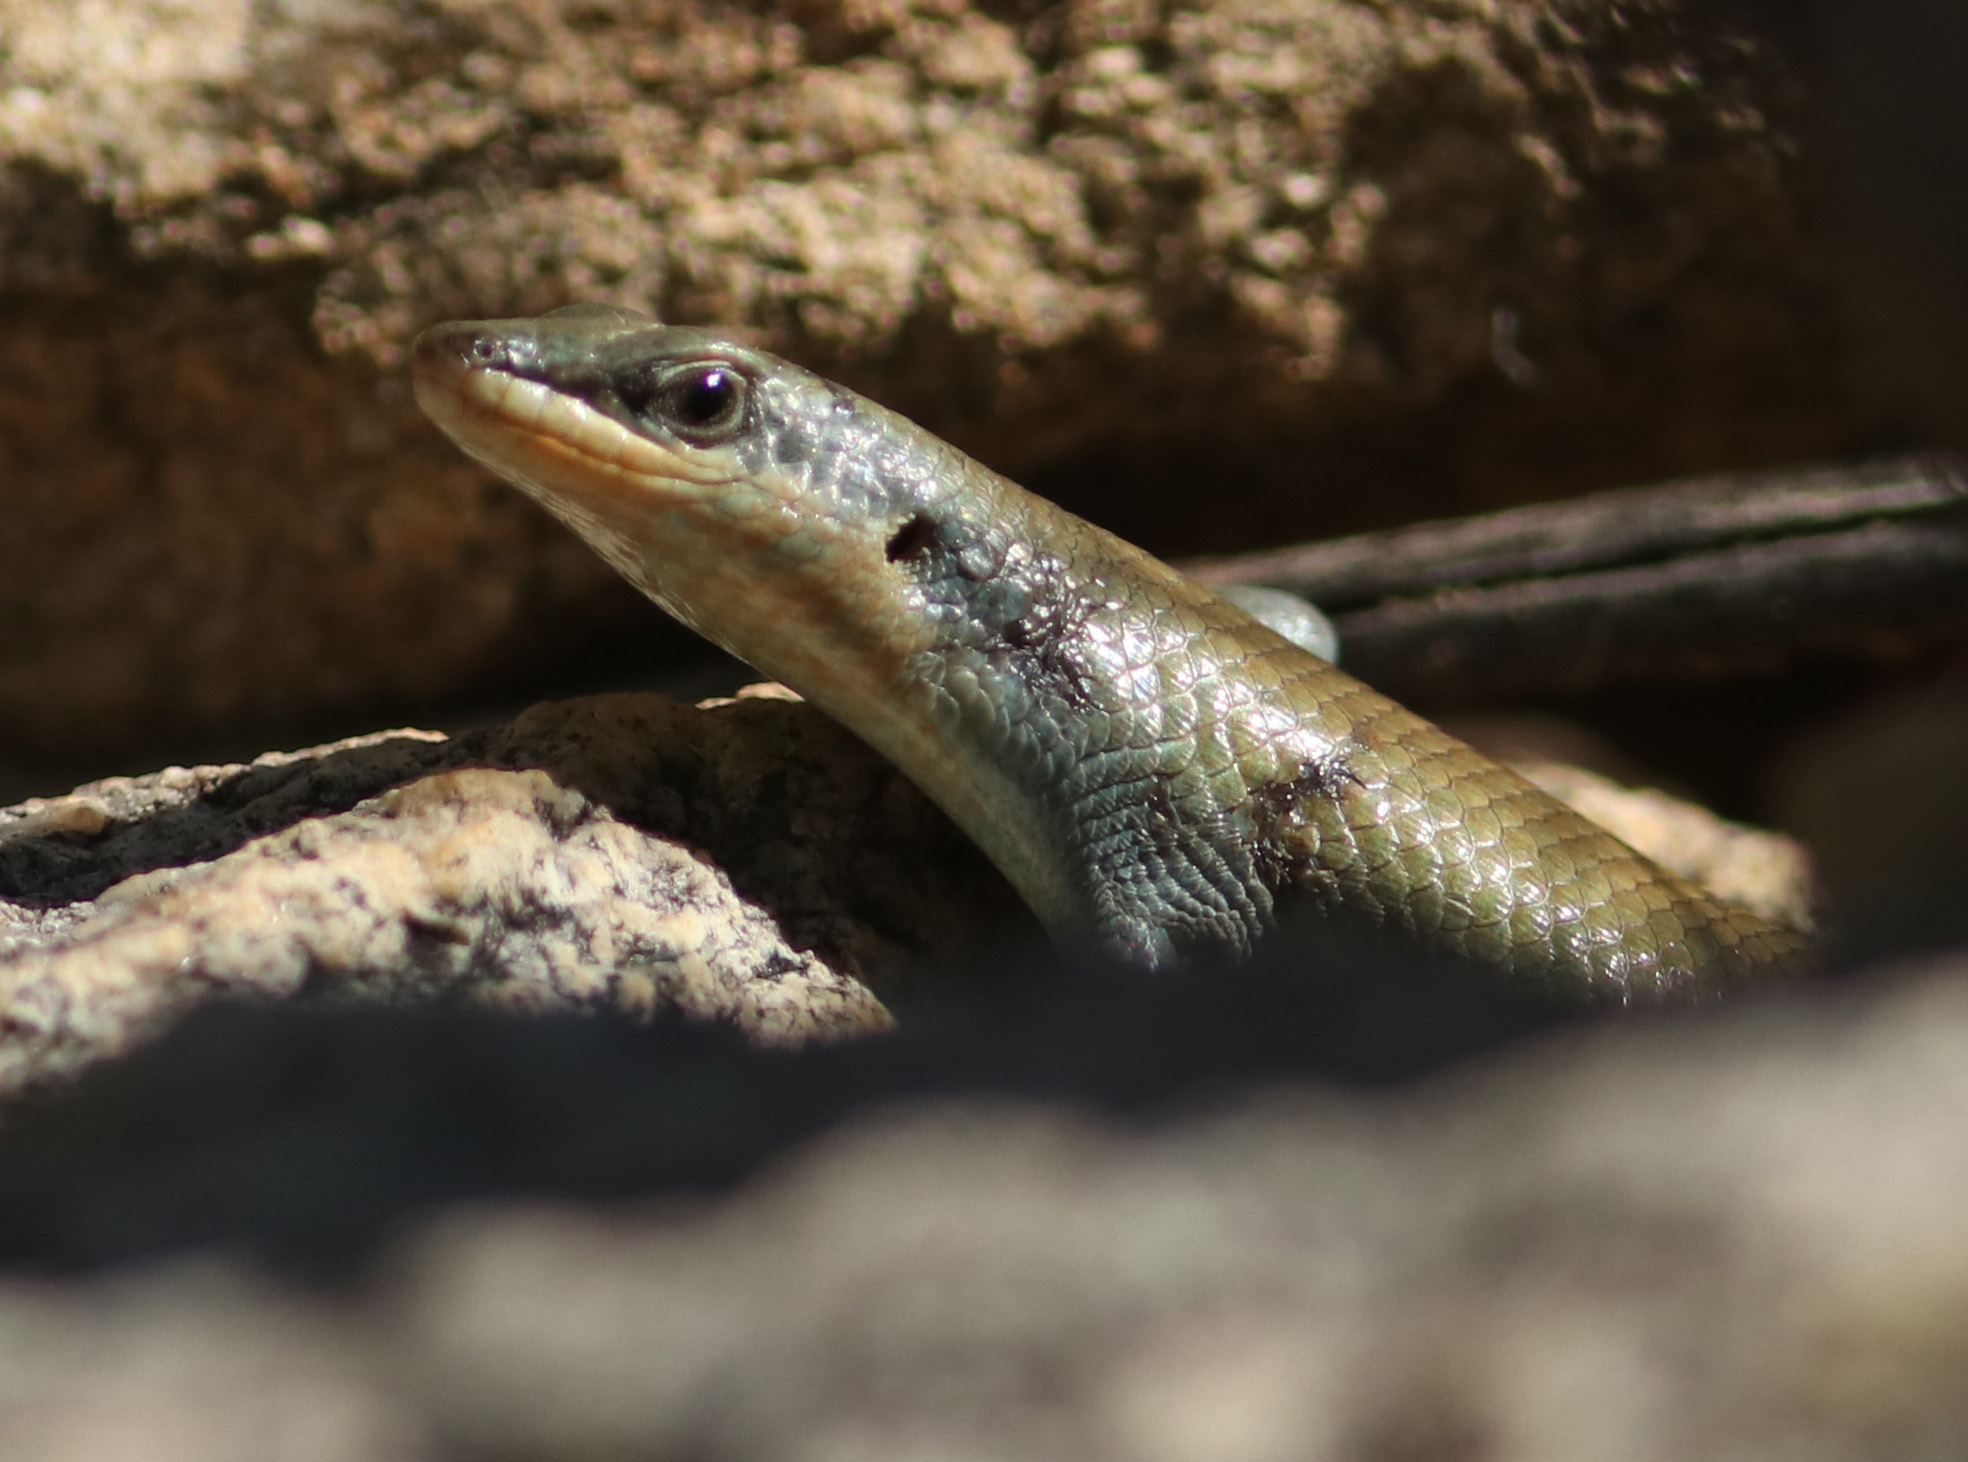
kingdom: Animalia
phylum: Chordata
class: Squamata
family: Scincidae
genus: Trachylepis
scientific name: Trachylepis sulcata
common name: Western rock skink
